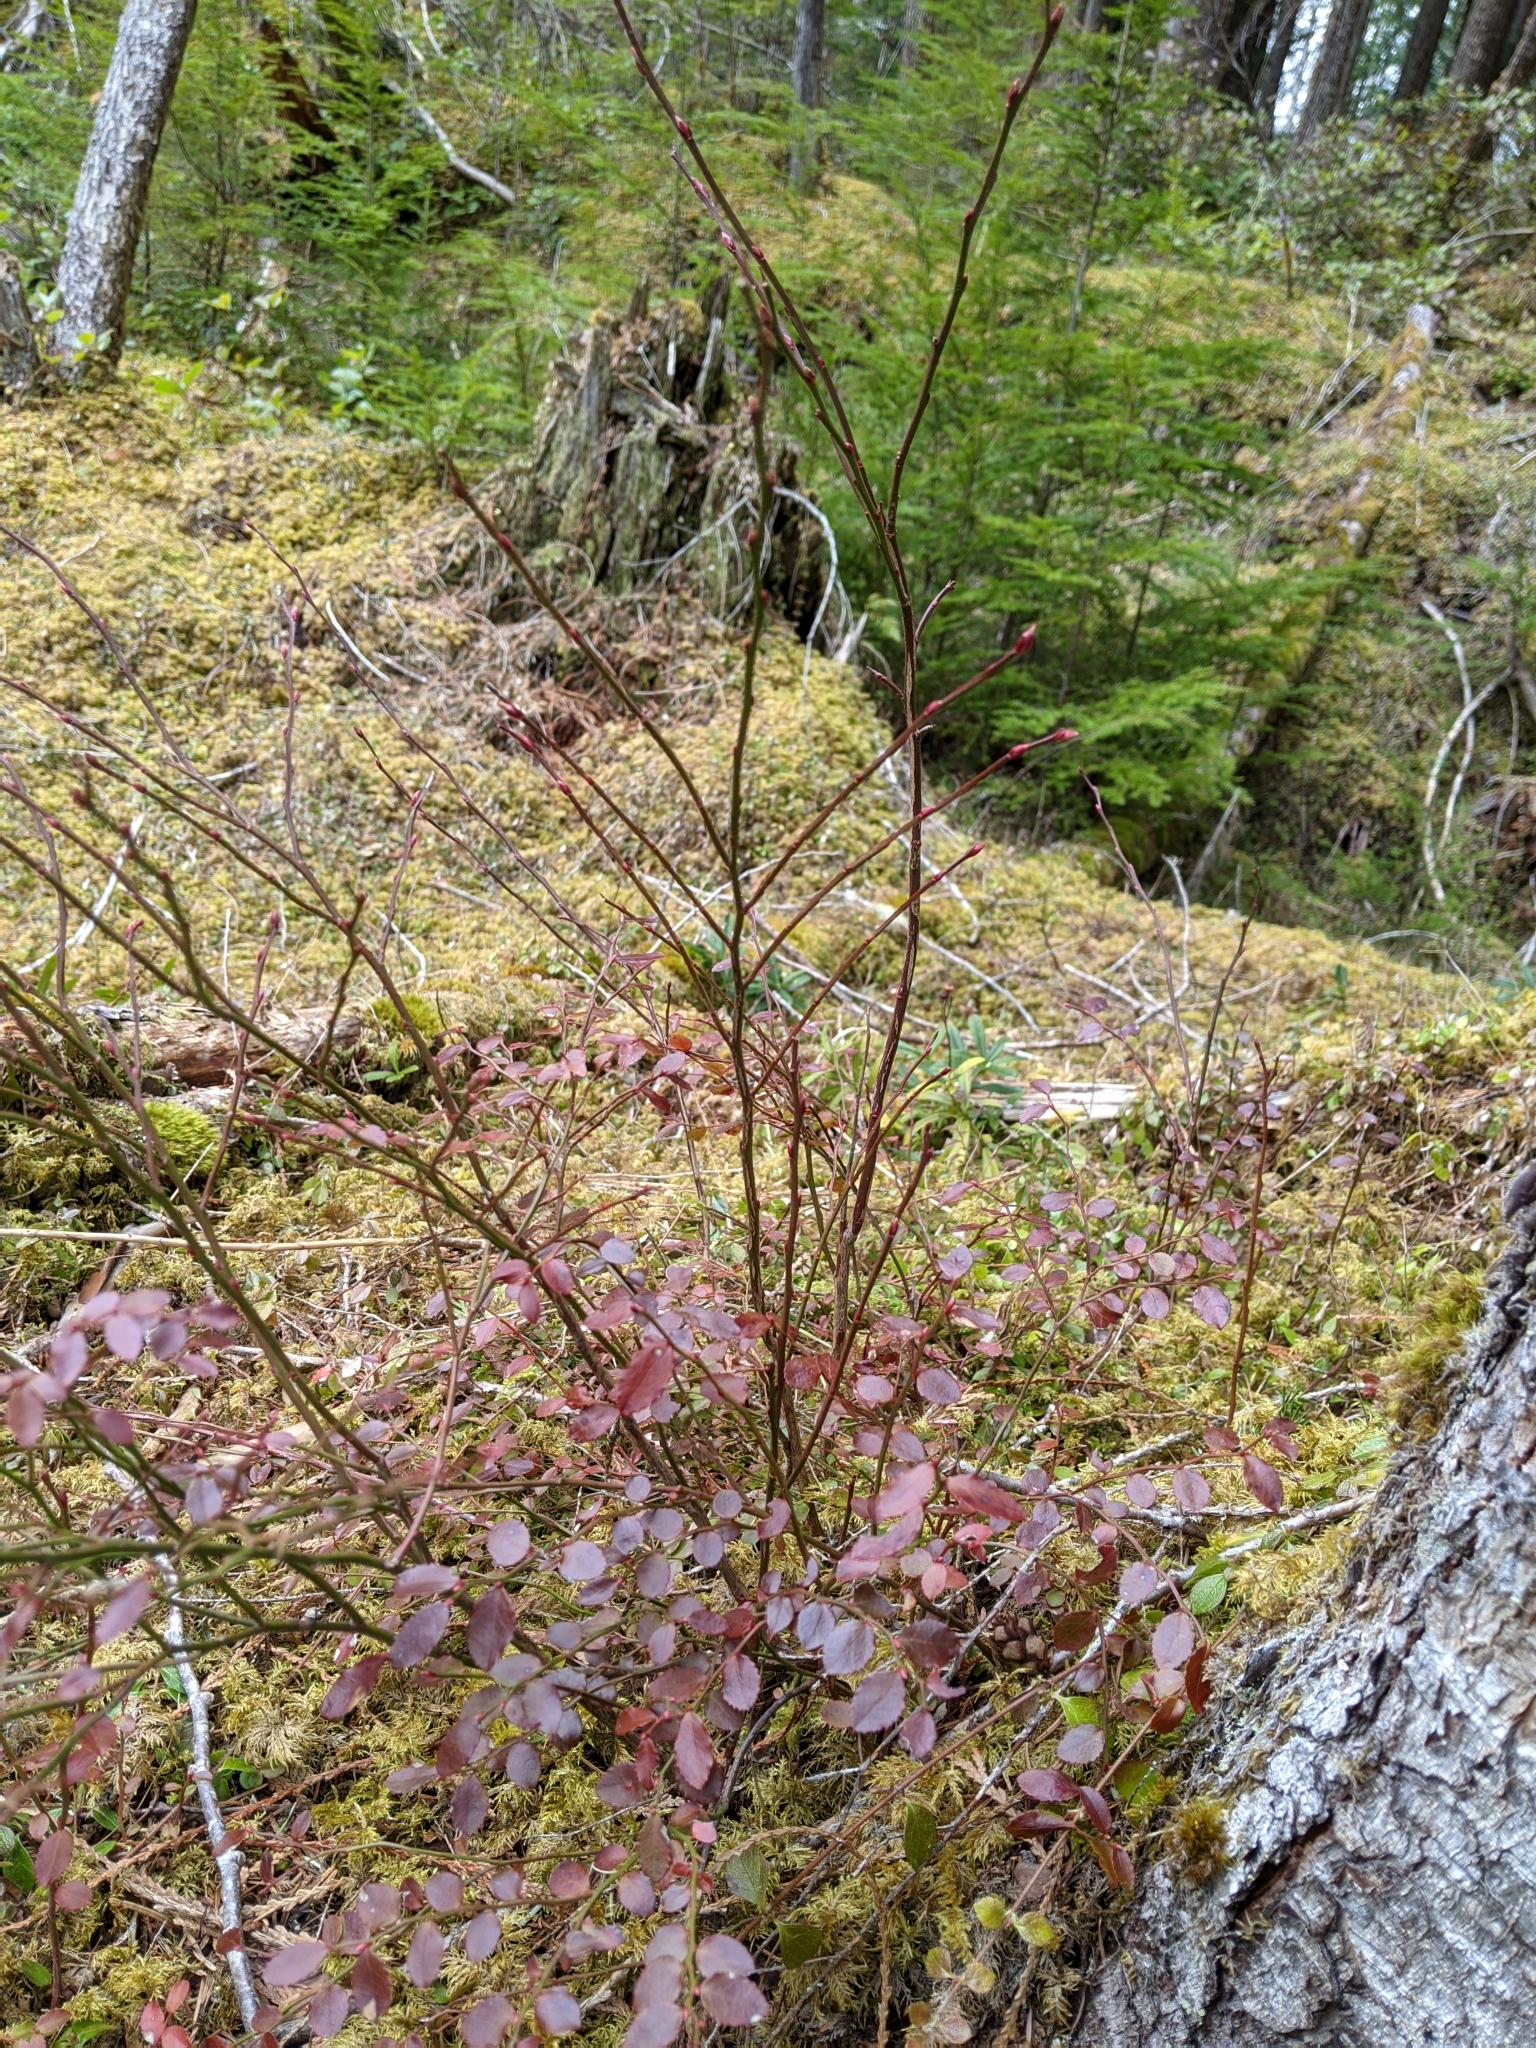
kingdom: Plantae
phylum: Tracheophyta
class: Magnoliopsida
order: Ericales
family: Ericaceae
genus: Vaccinium
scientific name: Vaccinium parvifolium
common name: Red-huckleberry
